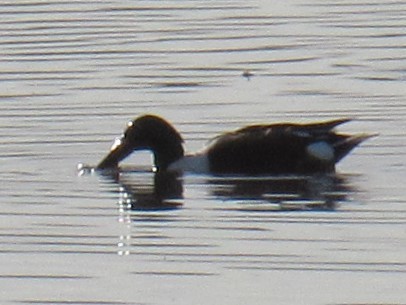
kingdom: Animalia
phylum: Chordata
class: Aves
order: Anseriformes
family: Anatidae
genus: Spatula
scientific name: Spatula clypeata
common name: Northern shoveler
